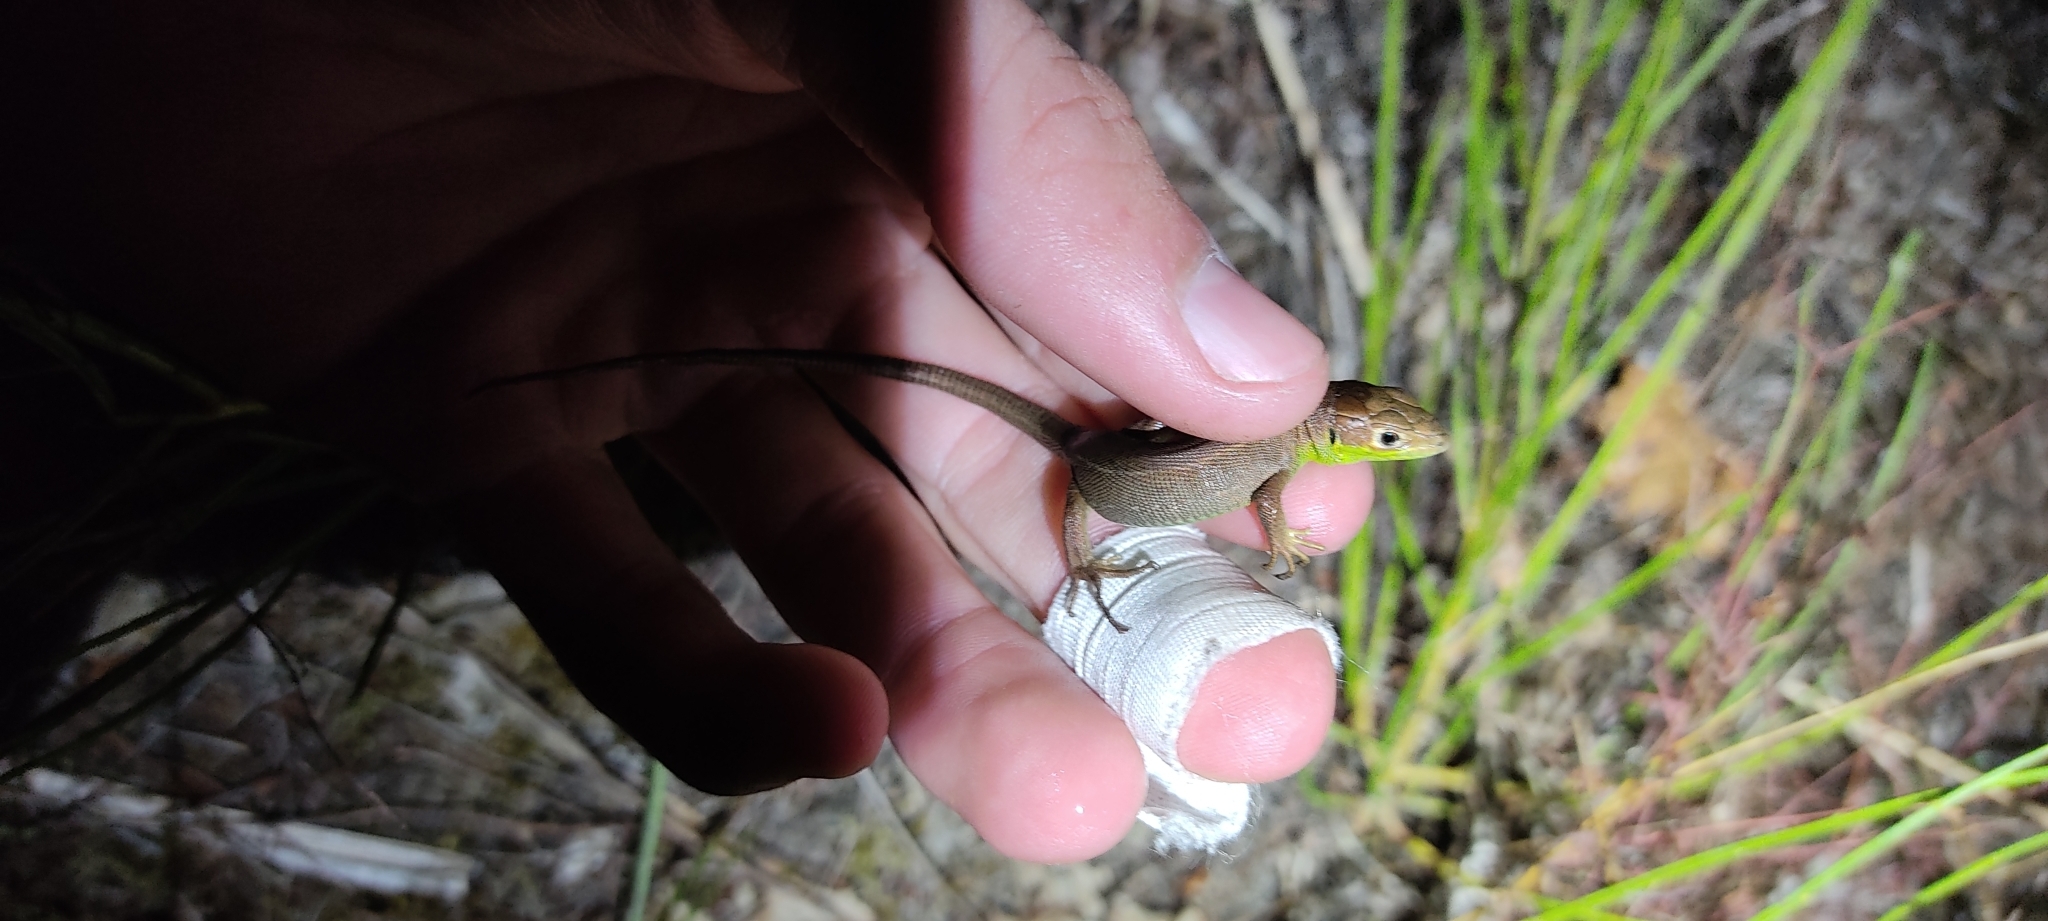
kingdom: Animalia
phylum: Chordata
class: Squamata
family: Lacertidae
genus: Lacerta
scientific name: Lacerta bilineata
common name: Western green lizard
